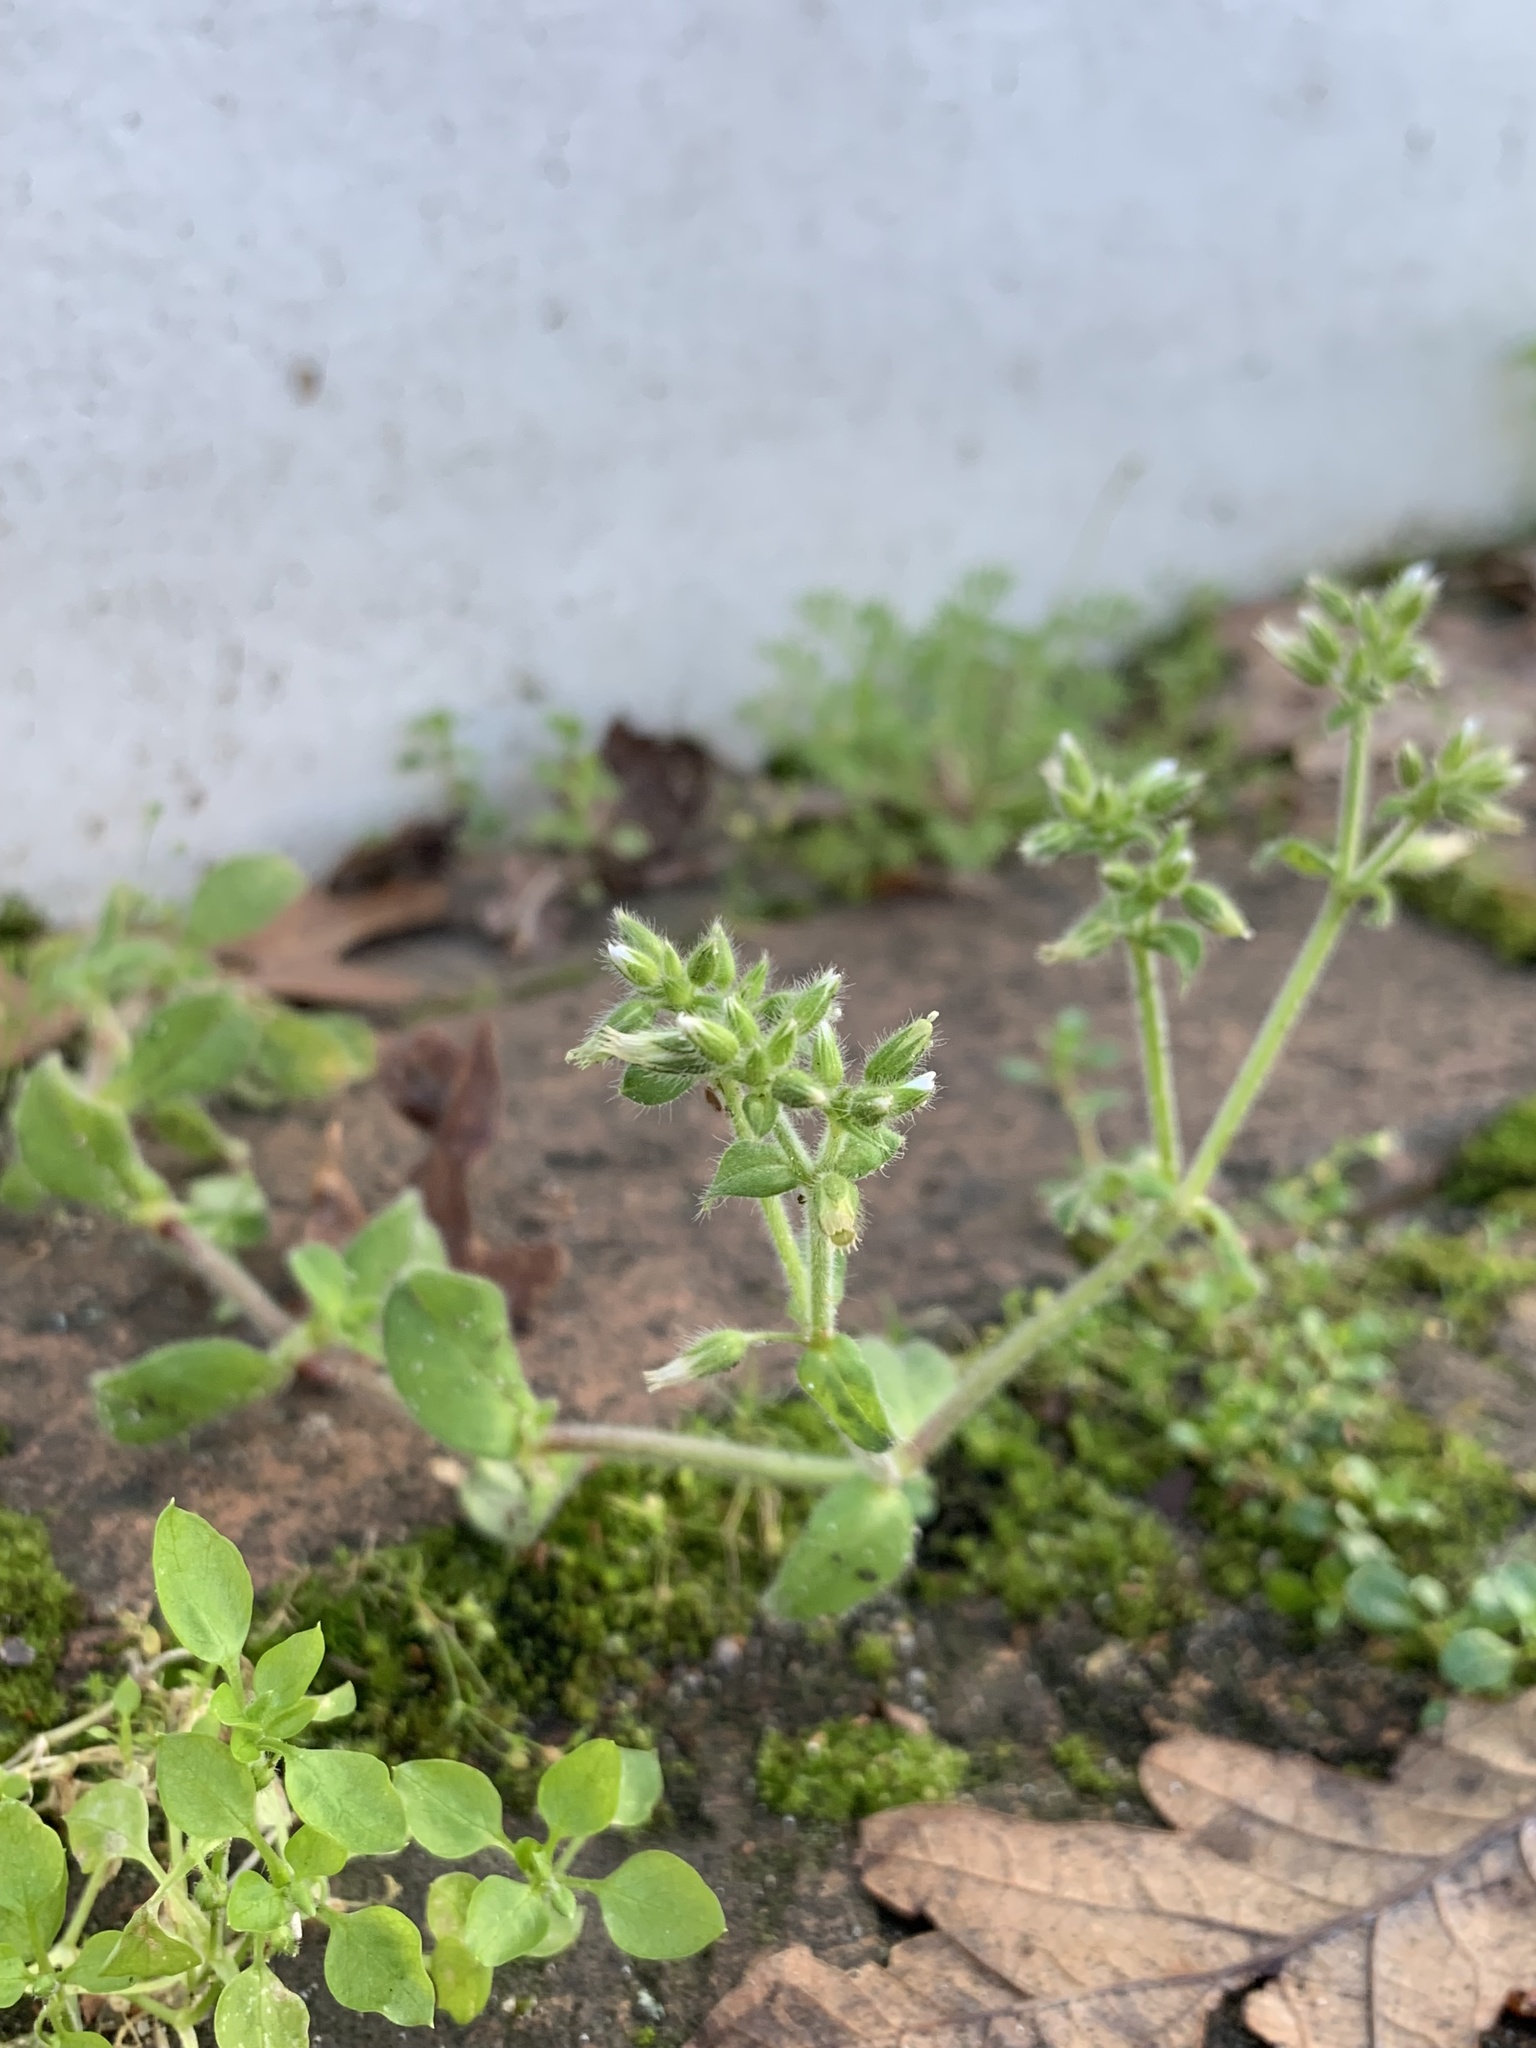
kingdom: Plantae
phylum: Tracheophyta
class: Magnoliopsida
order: Caryophyllales
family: Caryophyllaceae
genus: Cerastium
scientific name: Cerastium glomeratum
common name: Sticky chickweed
